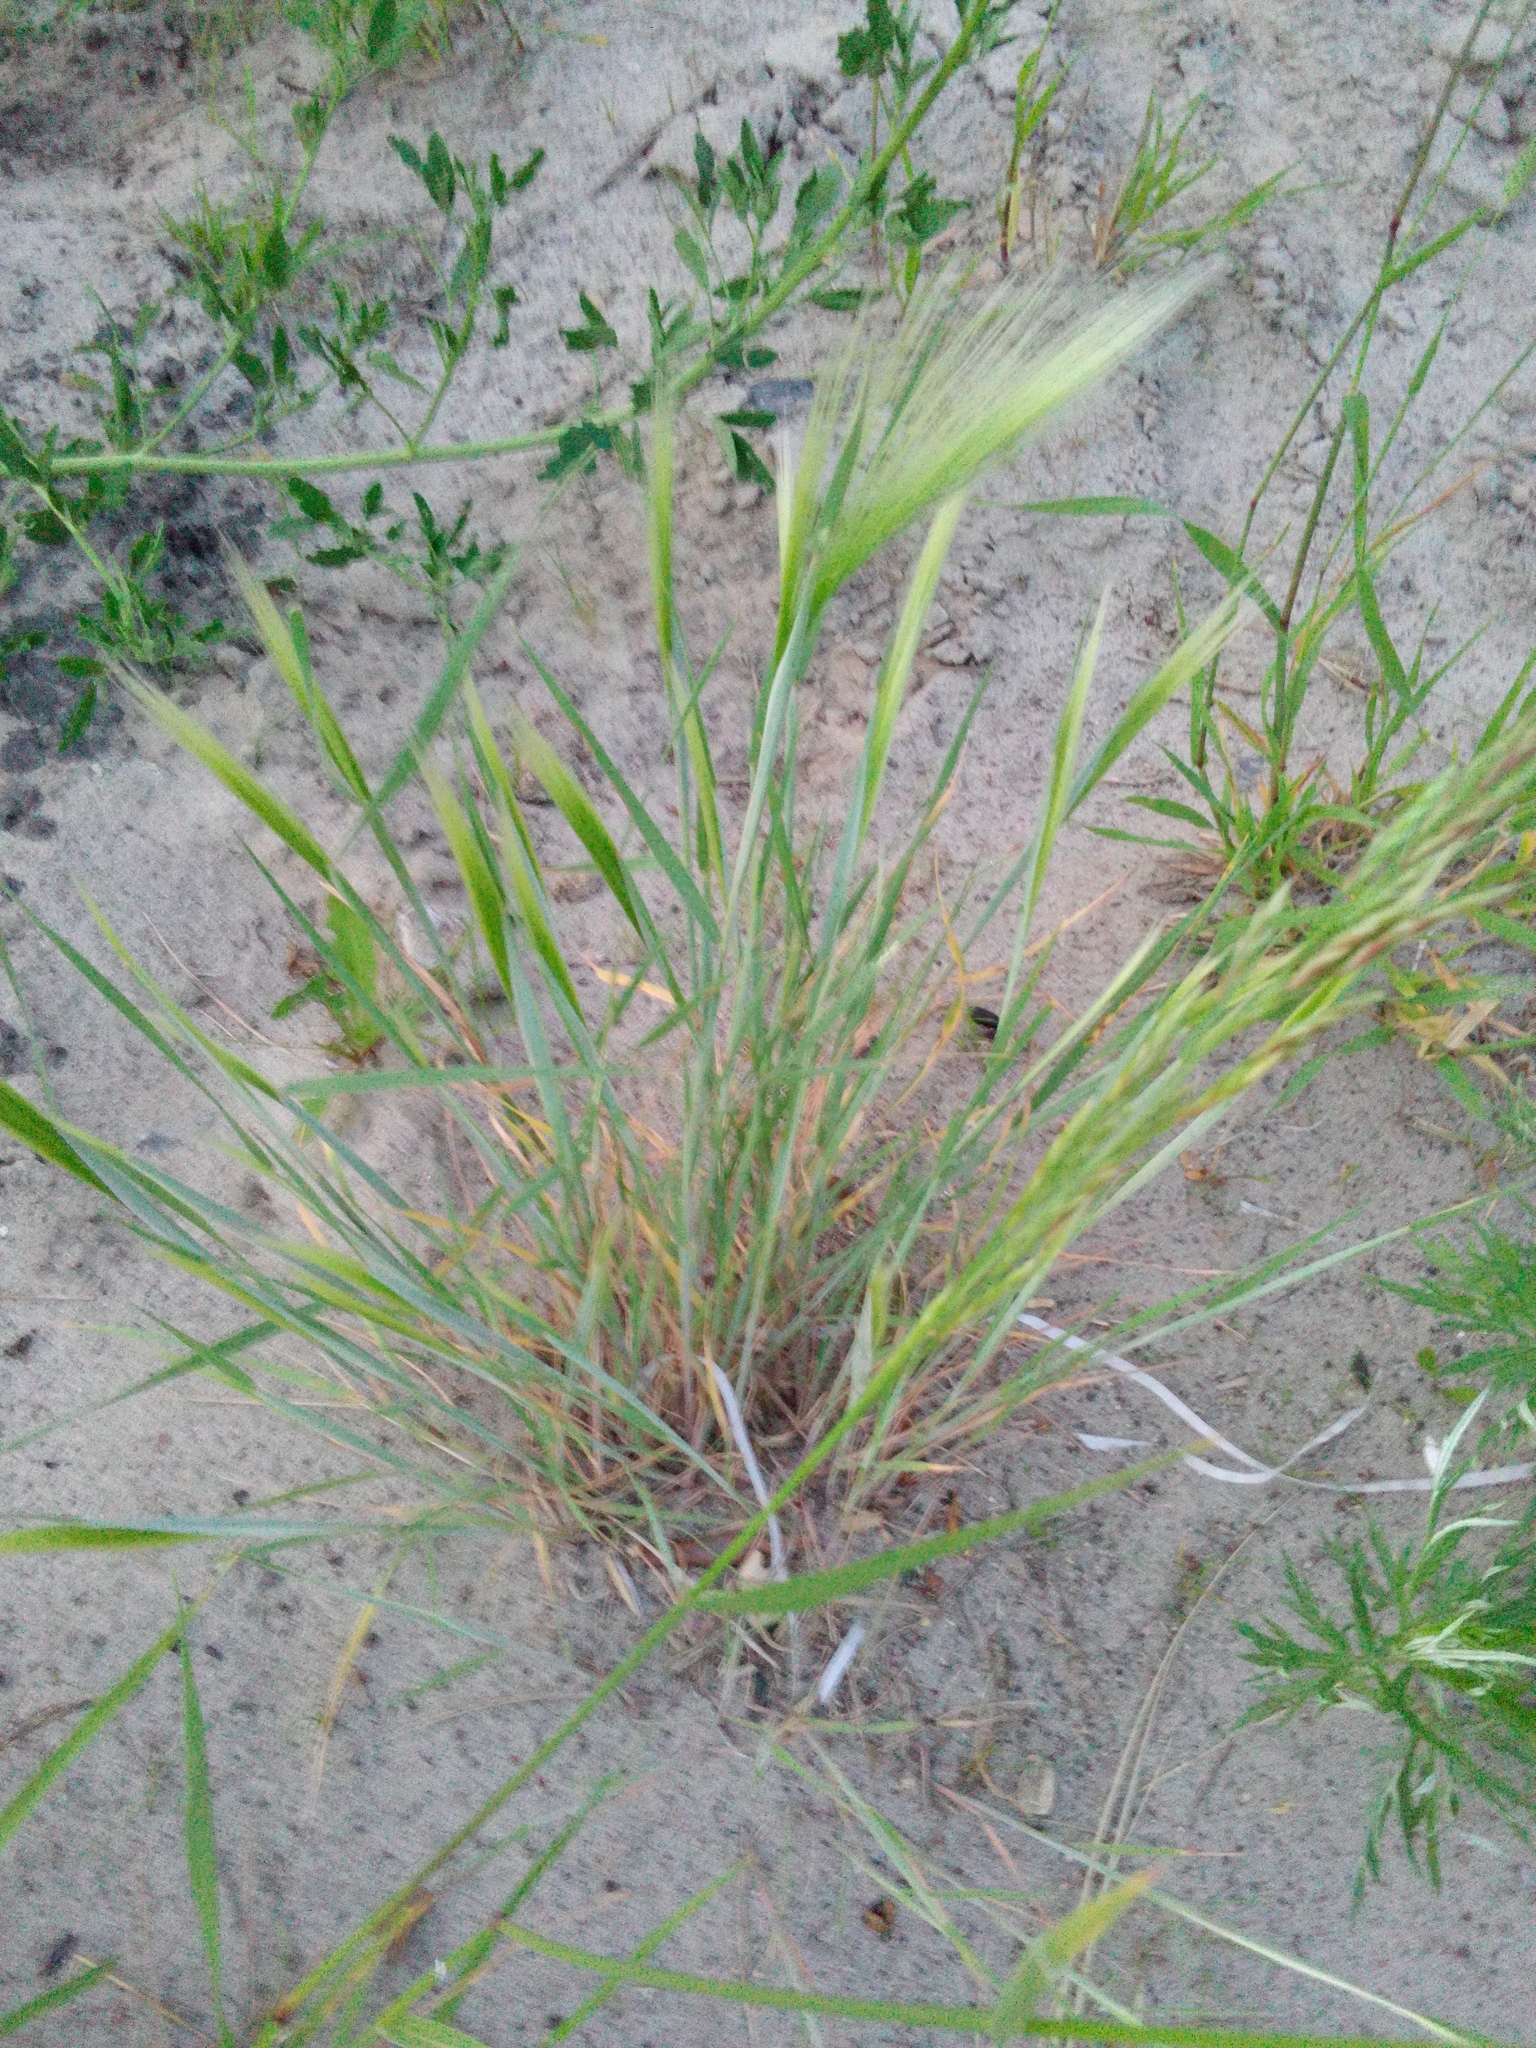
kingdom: Plantae
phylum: Tracheophyta
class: Liliopsida
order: Poales
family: Poaceae
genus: Hordeum
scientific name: Hordeum jubatum
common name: Foxtail barley
